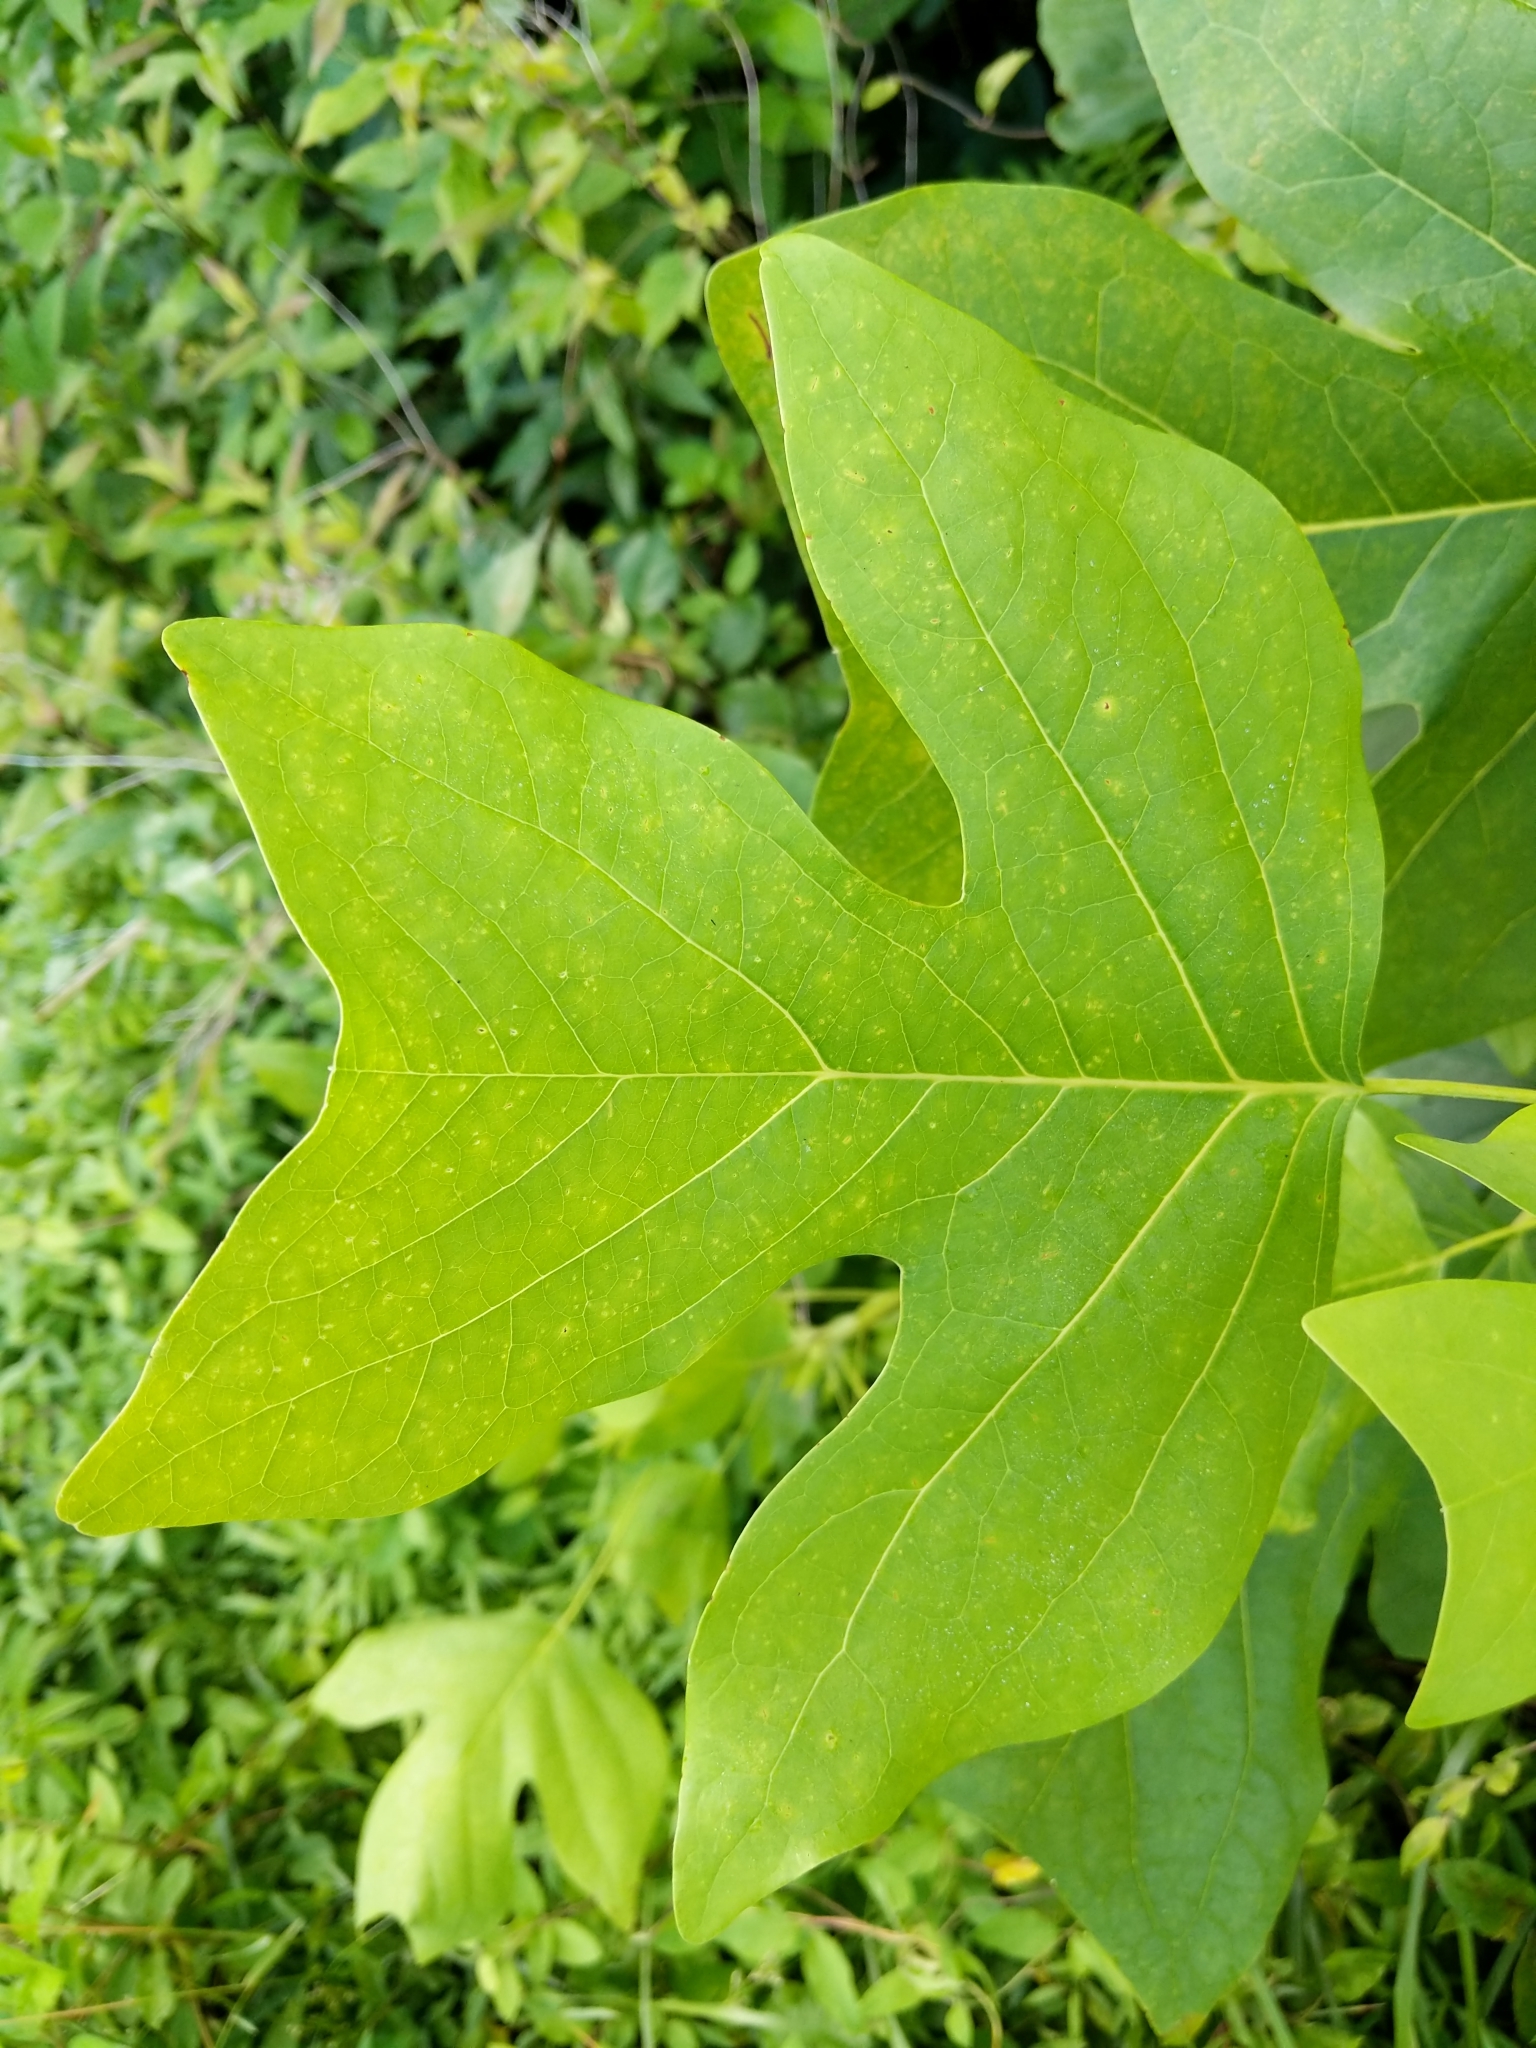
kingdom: Plantae
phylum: Tracheophyta
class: Magnoliopsida
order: Magnoliales
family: Magnoliaceae
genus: Liriodendron
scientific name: Liriodendron tulipifera
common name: Tulip tree
